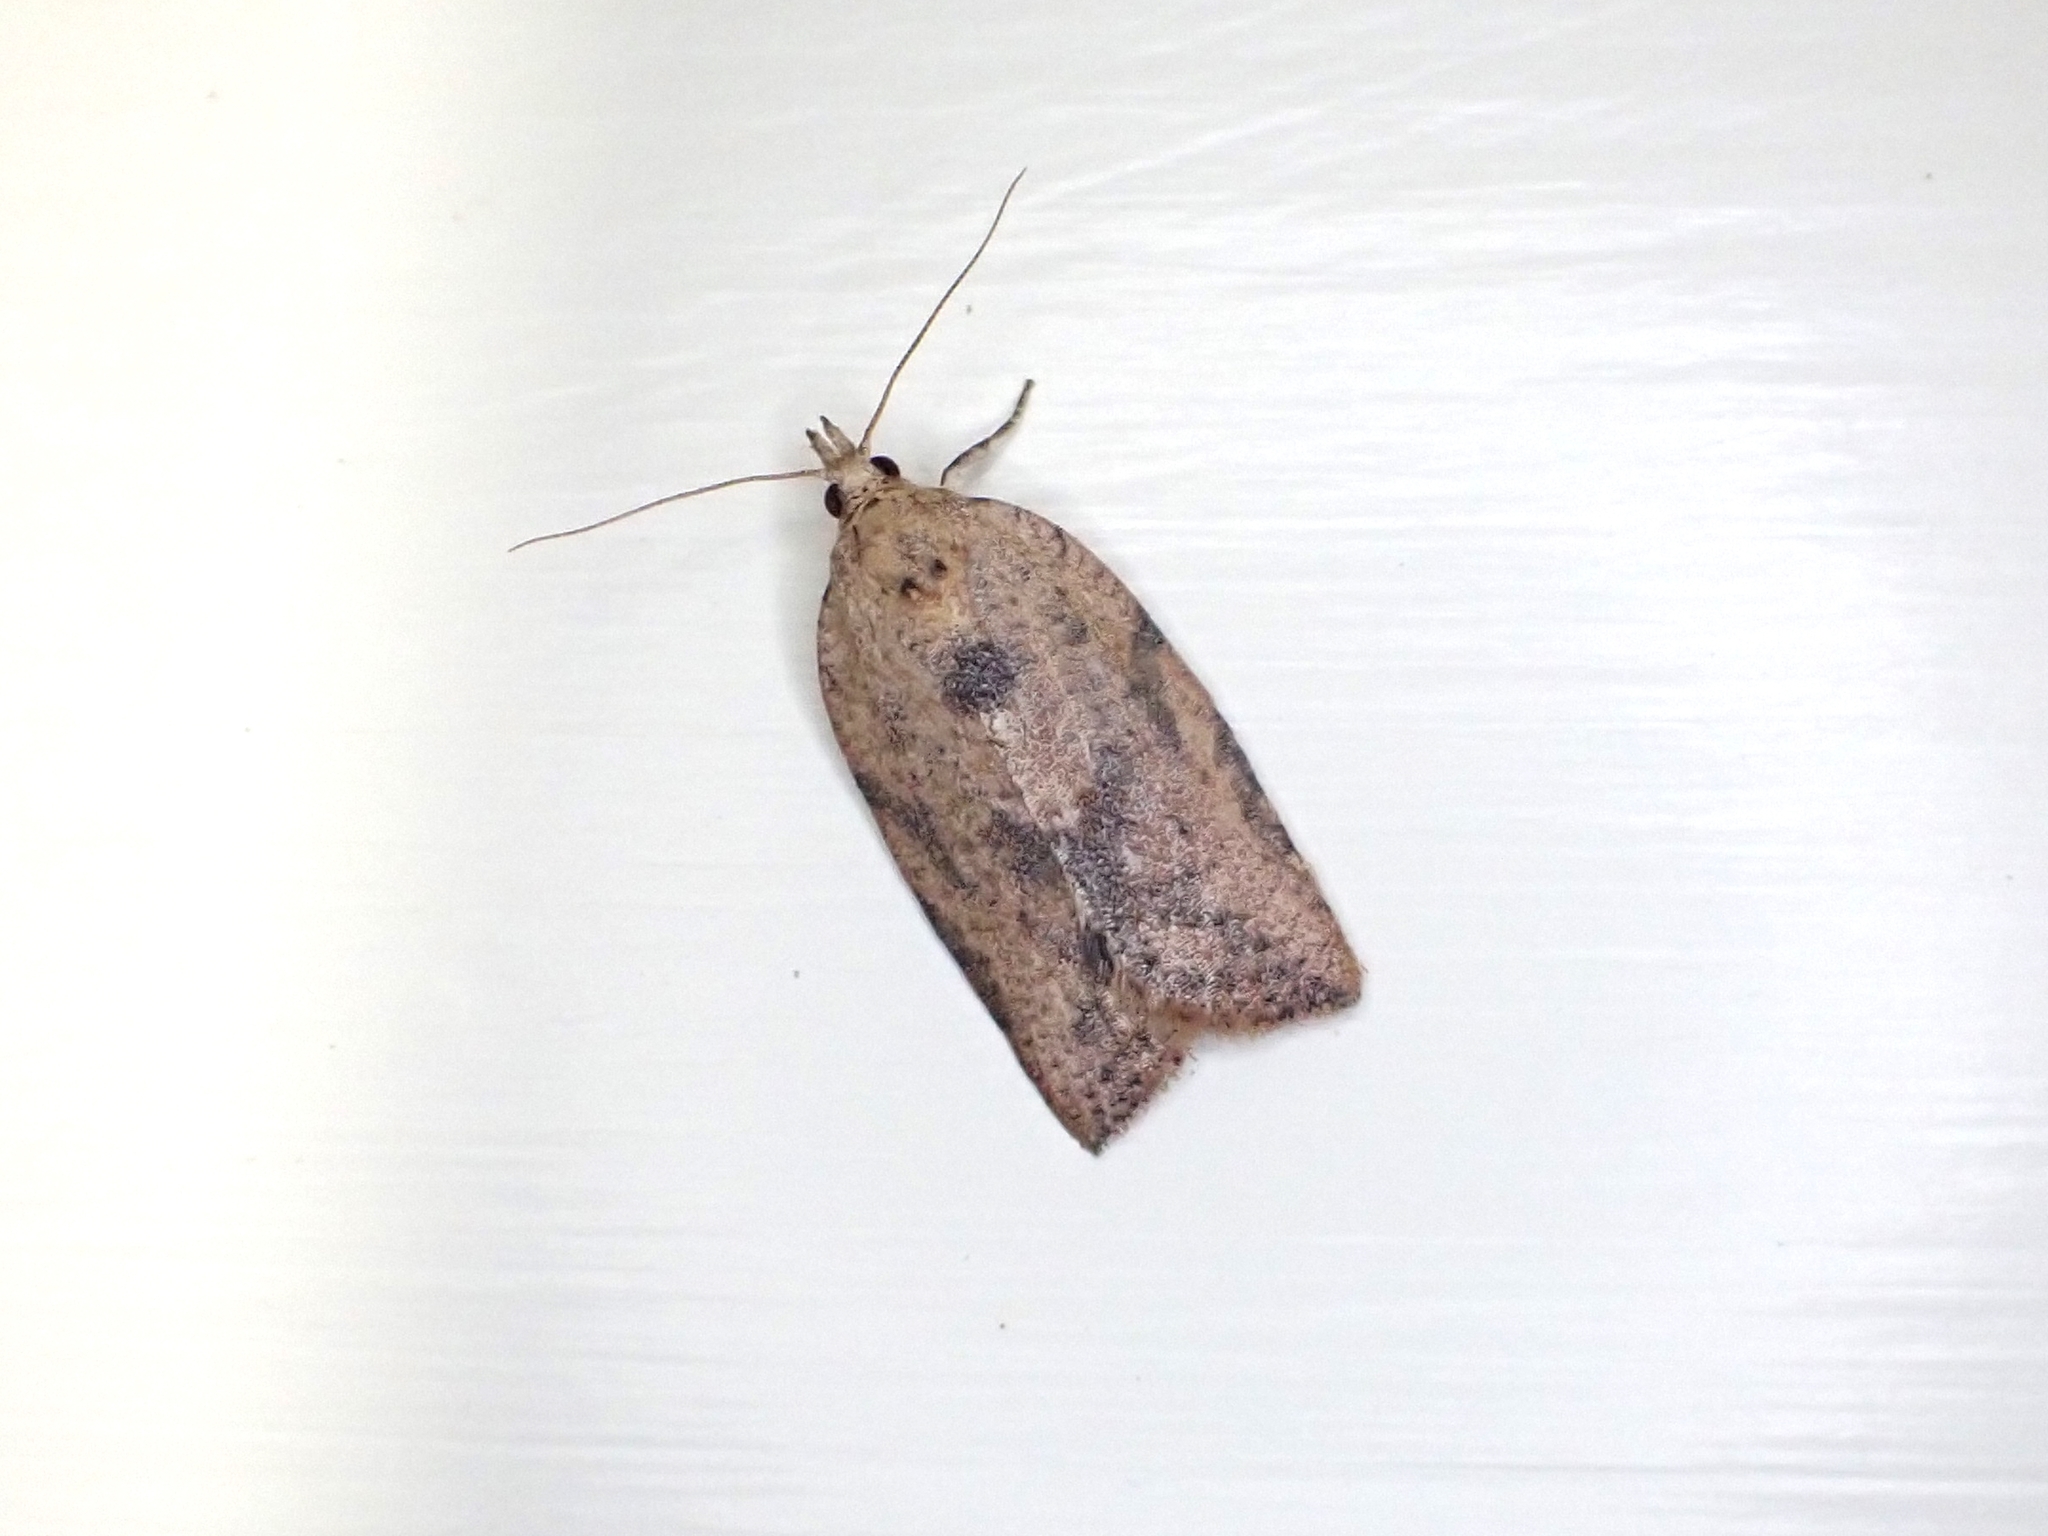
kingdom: Animalia
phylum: Arthropoda
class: Insecta
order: Lepidoptera
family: Tortricidae
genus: Epiphyas
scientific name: Epiphyas postvittana
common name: Light brown apple moth
